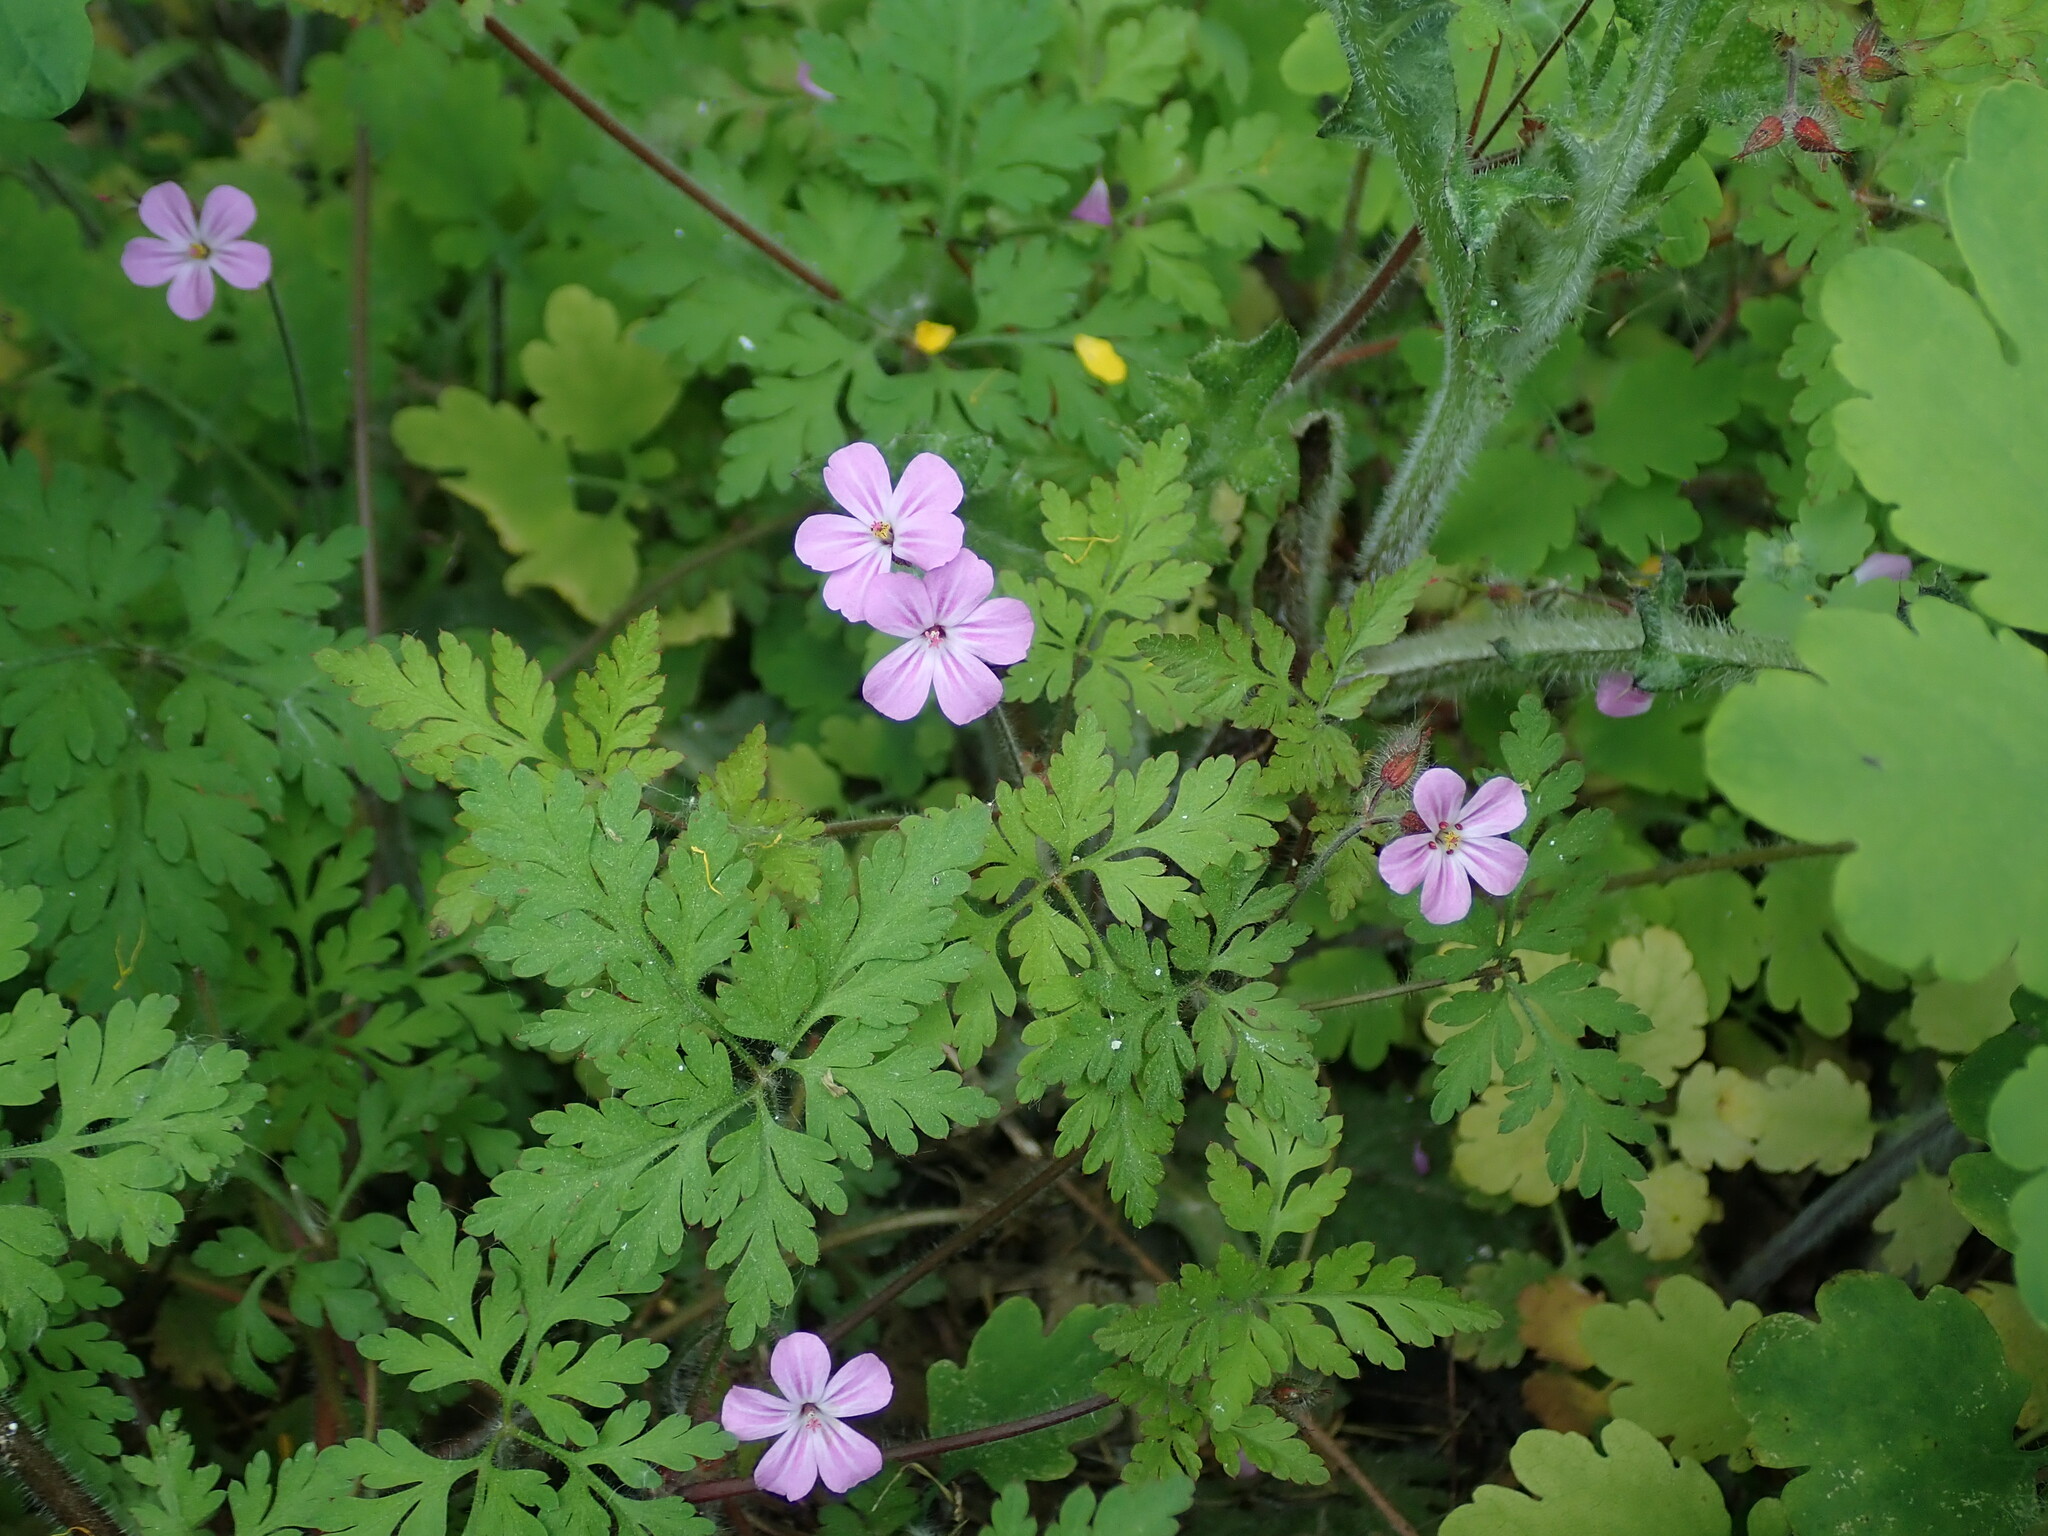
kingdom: Plantae
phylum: Tracheophyta
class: Magnoliopsida
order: Geraniales
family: Geraniaceae
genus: Geranium
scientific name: Geranium robertianum
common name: Herb-robert
